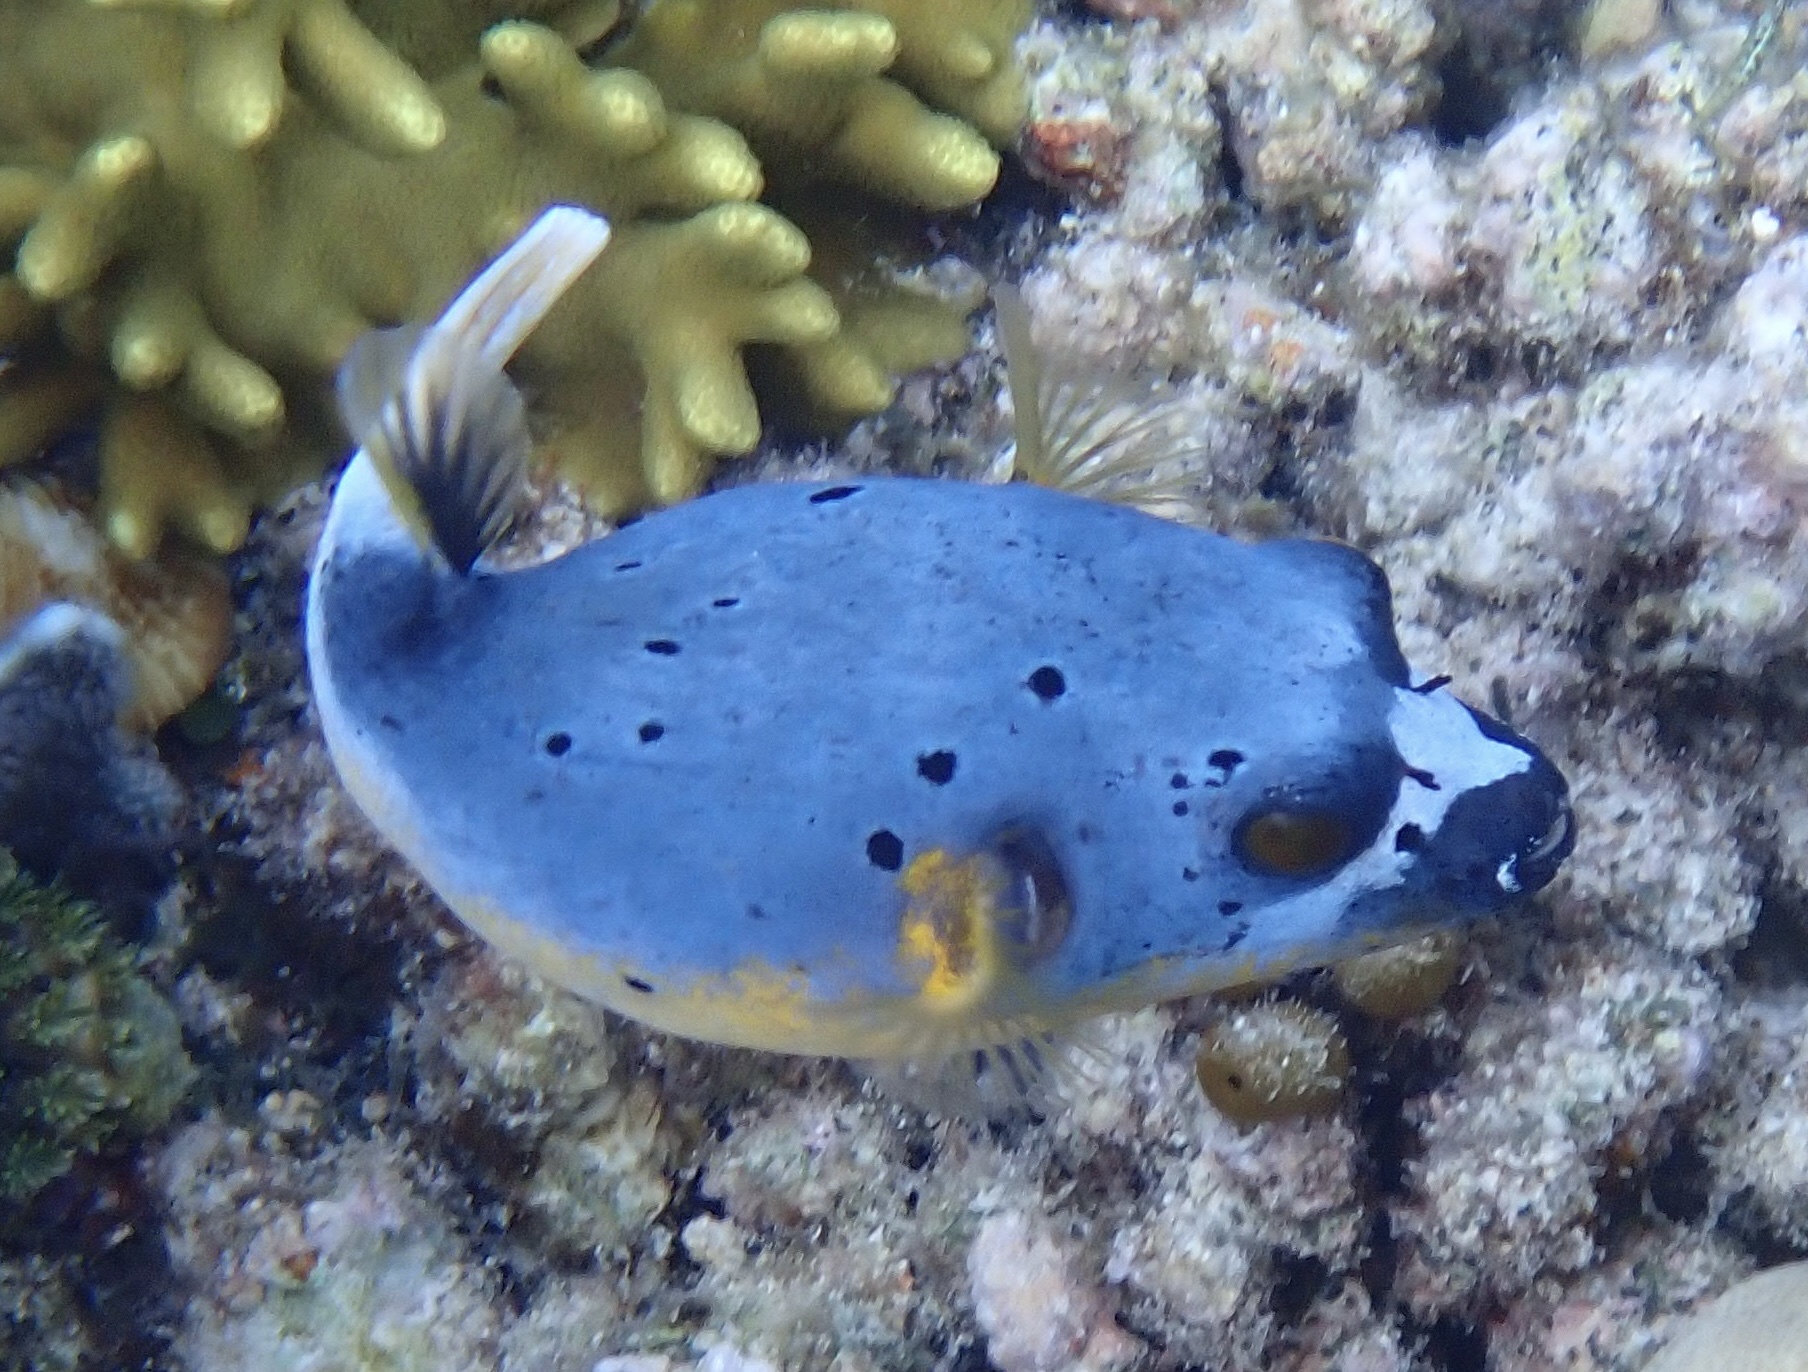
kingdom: Animalia
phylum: Chordata
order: Tetraodontiformes
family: Tetraodontidae
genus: Arothron
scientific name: Arothron nigropunctatus
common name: Black spotted blow fish
